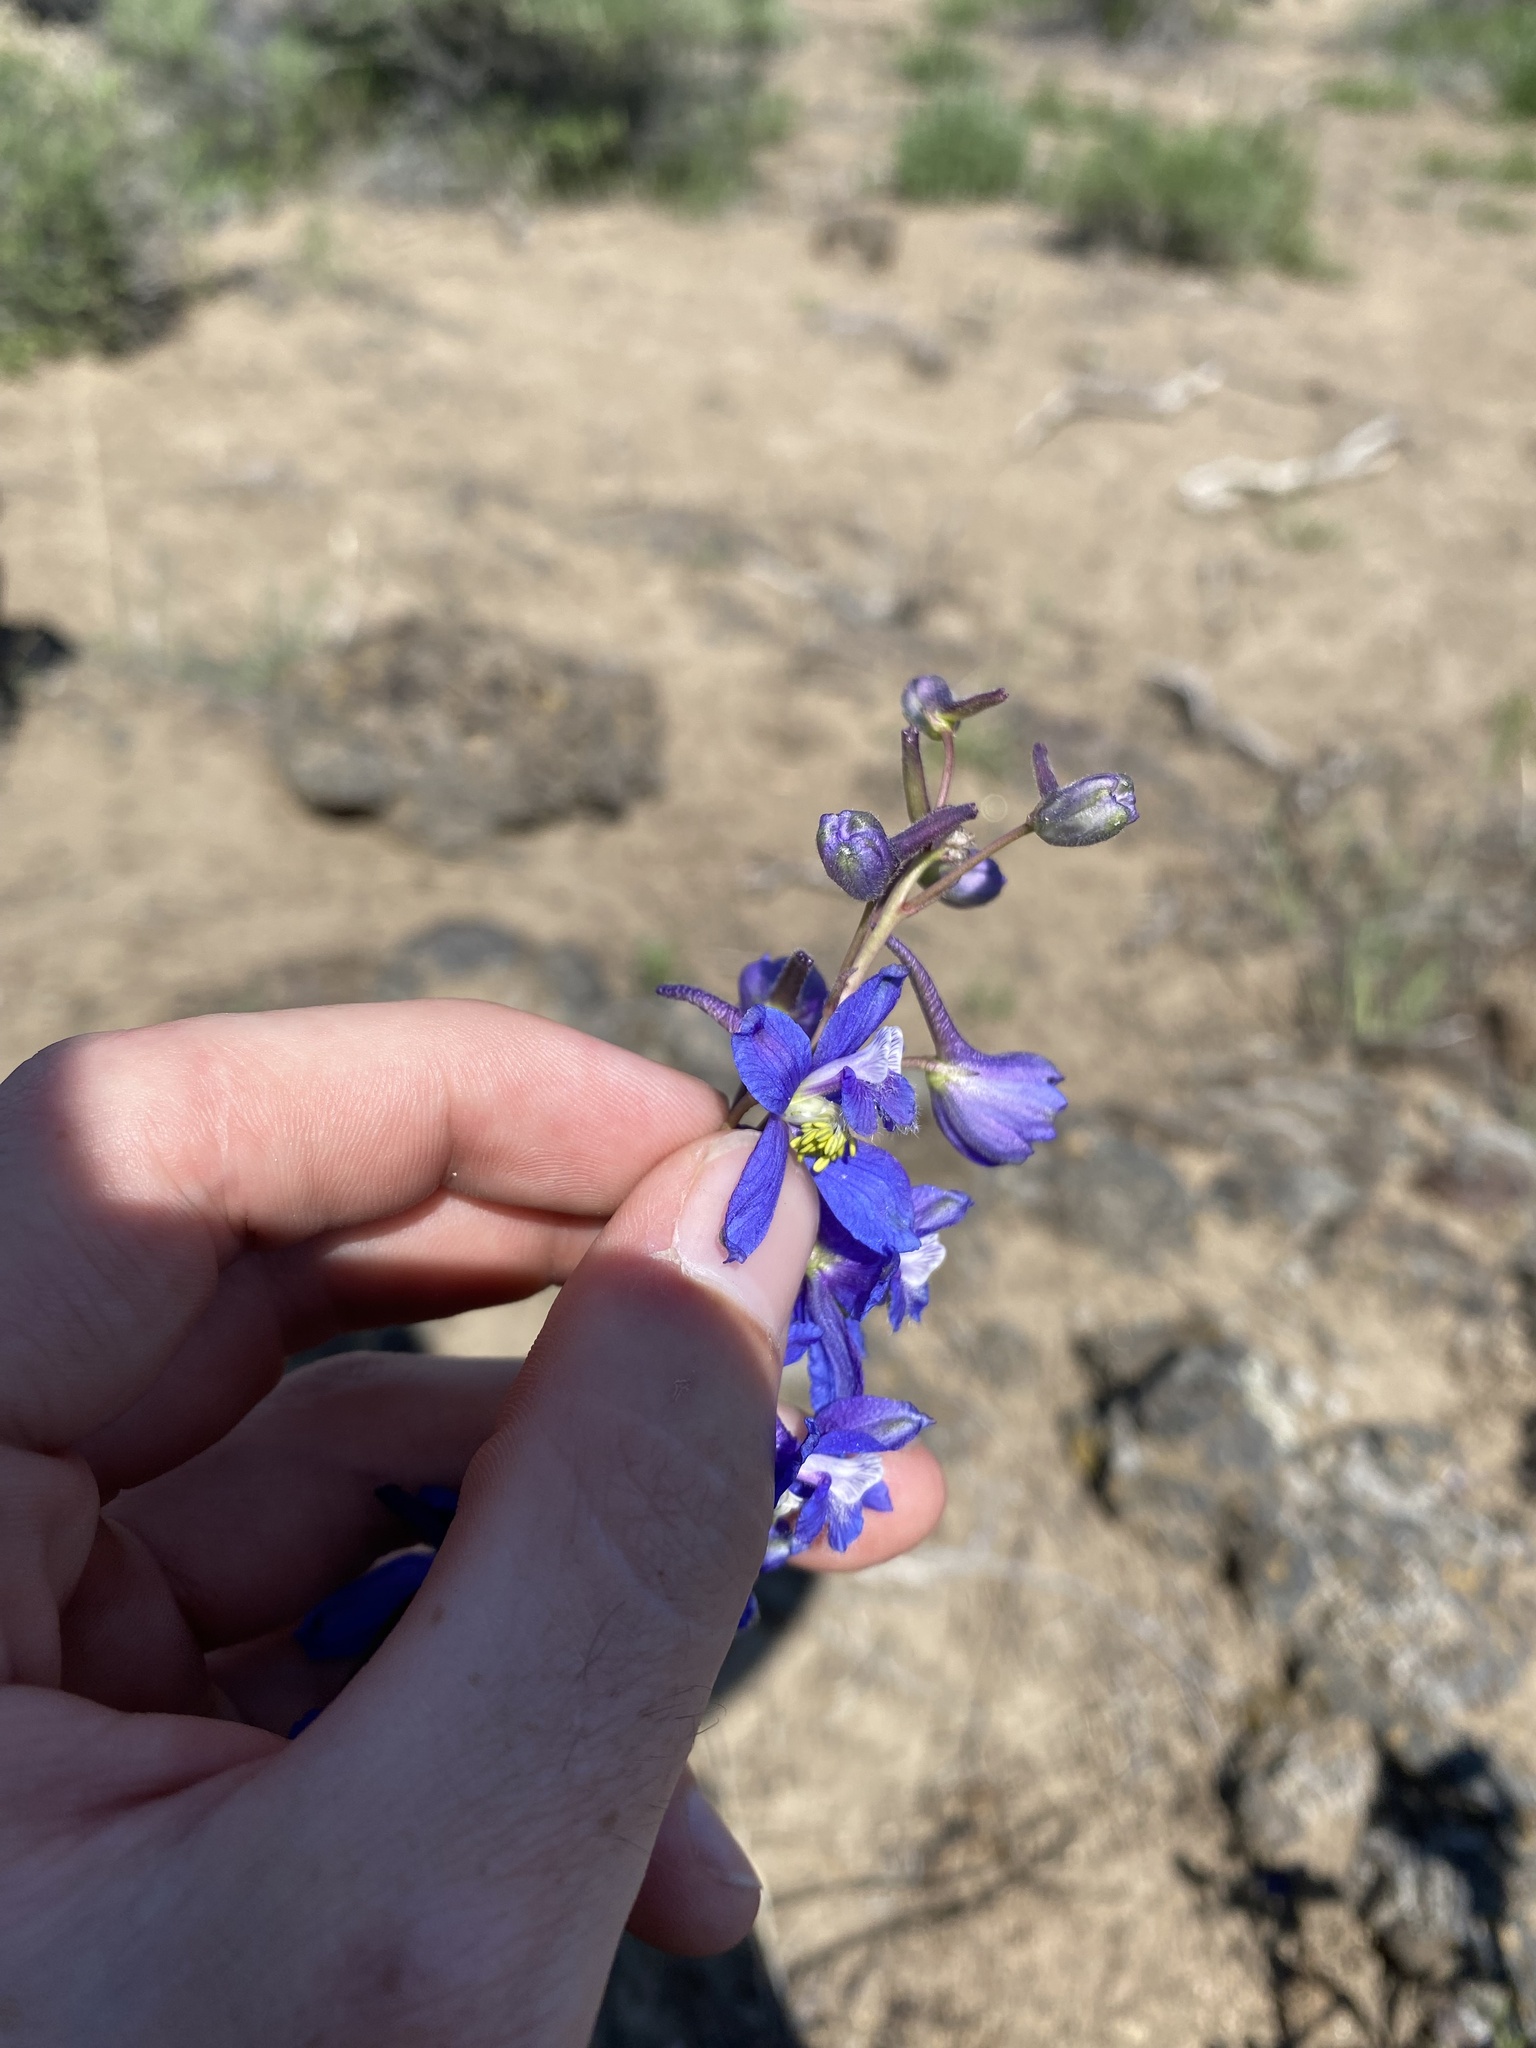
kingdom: Plantae
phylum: Tracheophyta
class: Magnoliopsida
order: Ranunculales
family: Ranunculaceae
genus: Delphinium
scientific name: Delphinium andersonii
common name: Anderson's larkspur
